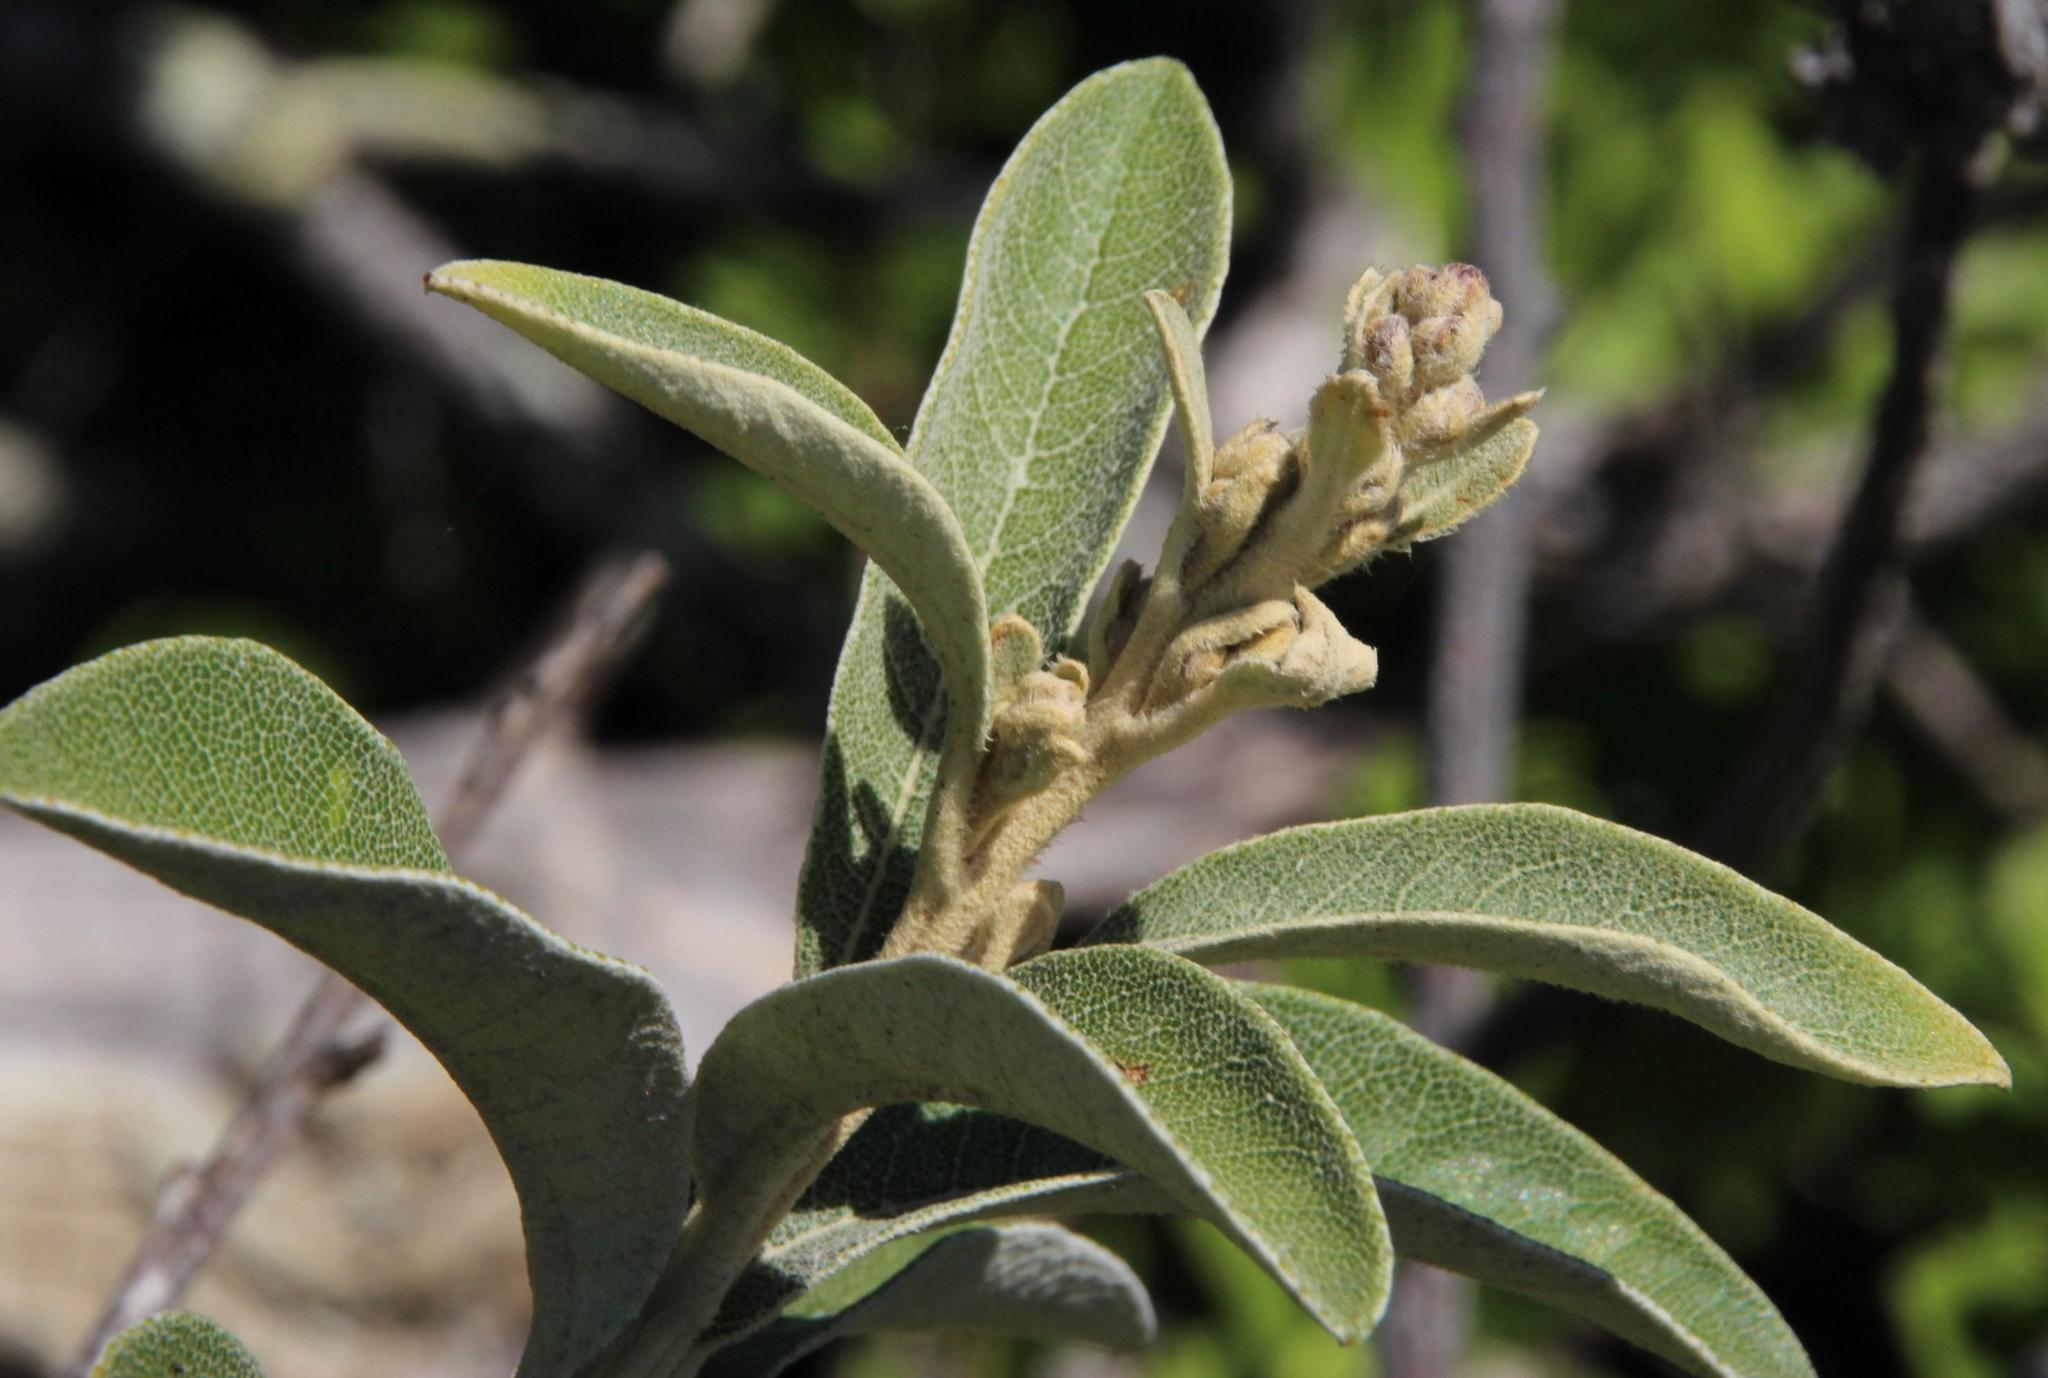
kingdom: Plantae
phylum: Tracheophyta
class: Magnoliopsida
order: Asterales
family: Asteraceae
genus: Tarchonanthus
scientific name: Tarchonanthus littoralis
